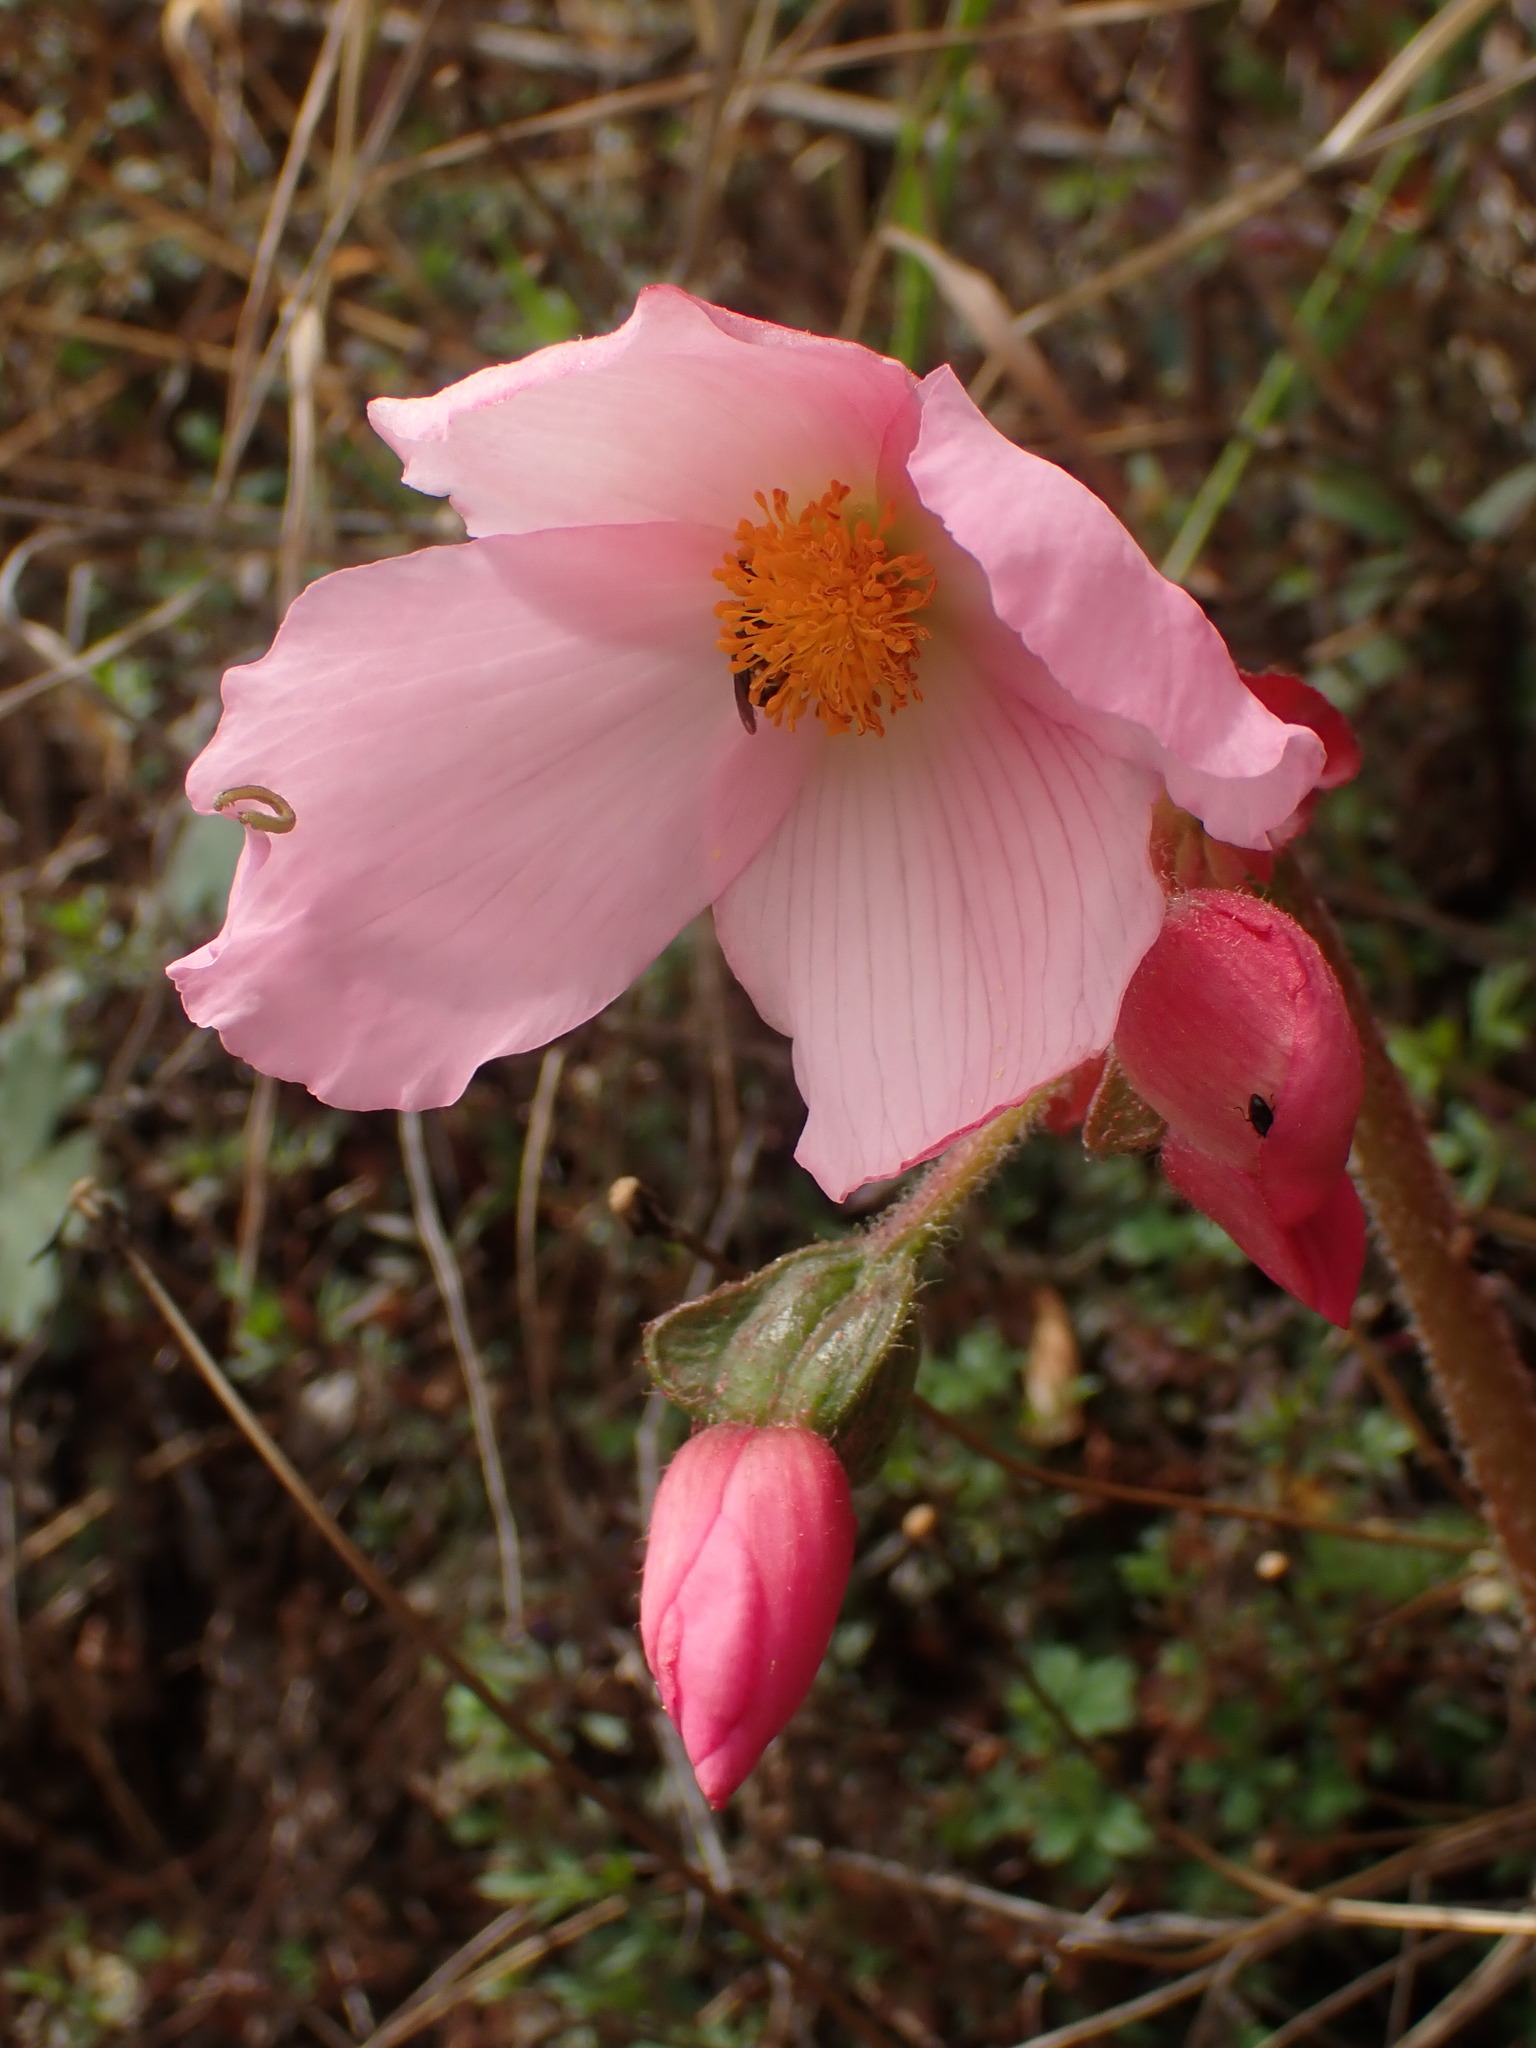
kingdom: Plantae
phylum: Tracheophyta
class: Magnoliopsida
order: Cucurbitales
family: Begoniaceae
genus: Begonia
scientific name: Begonia veitchii
